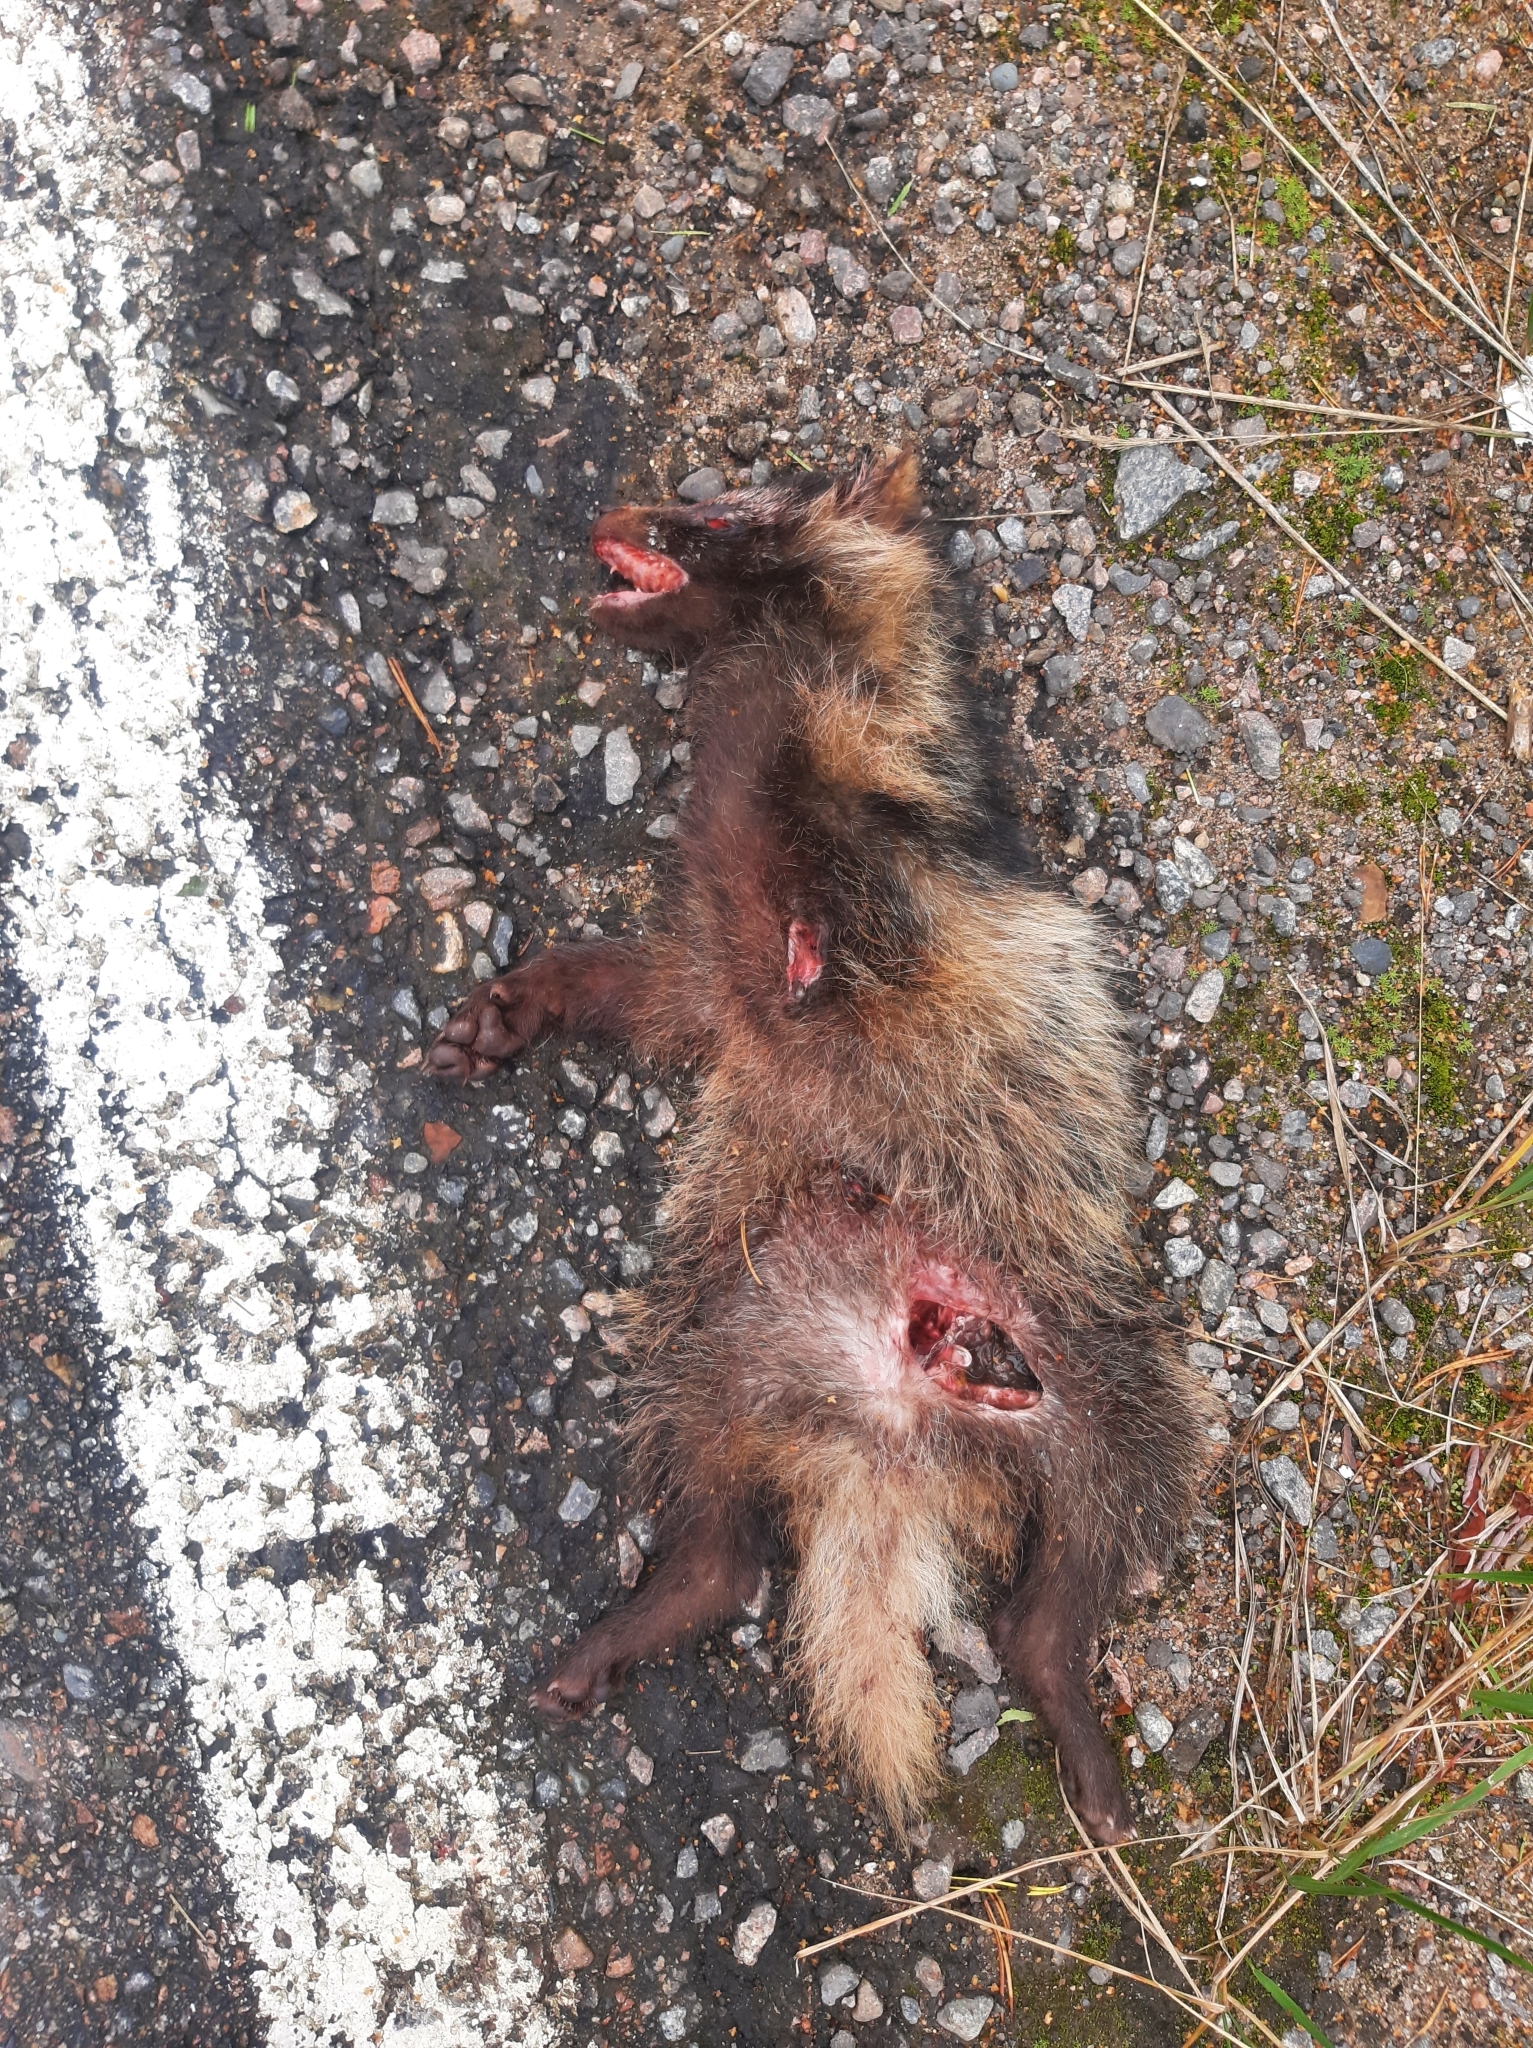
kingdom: Animalia
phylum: Chordata
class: Mammalia
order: Carnivora
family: Canidae
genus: Nyctereutes
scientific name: Nyctereutes procyonoides
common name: Raccoon dog
